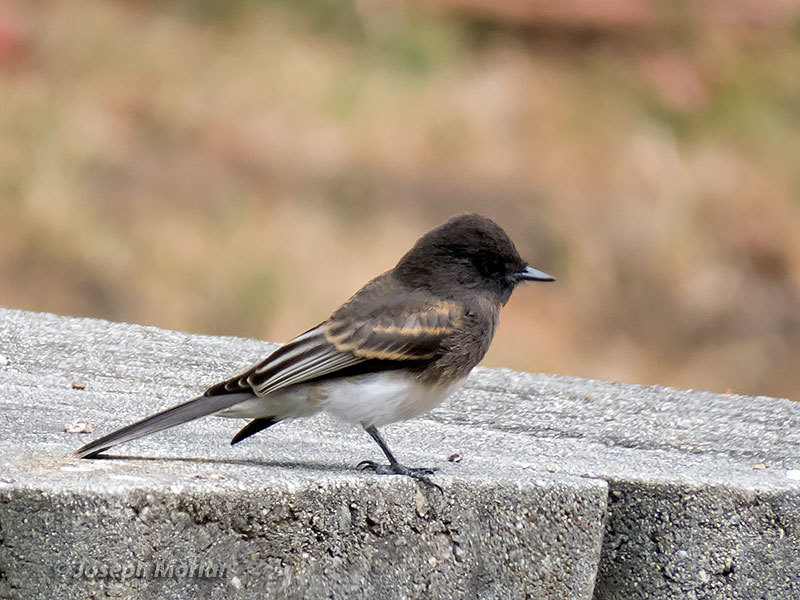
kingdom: Animalia
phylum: Chordata
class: Aves
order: Passeriformes
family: Tyrannidae
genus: Sayornis
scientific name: Sayornis nigricans
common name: Black phoebe
